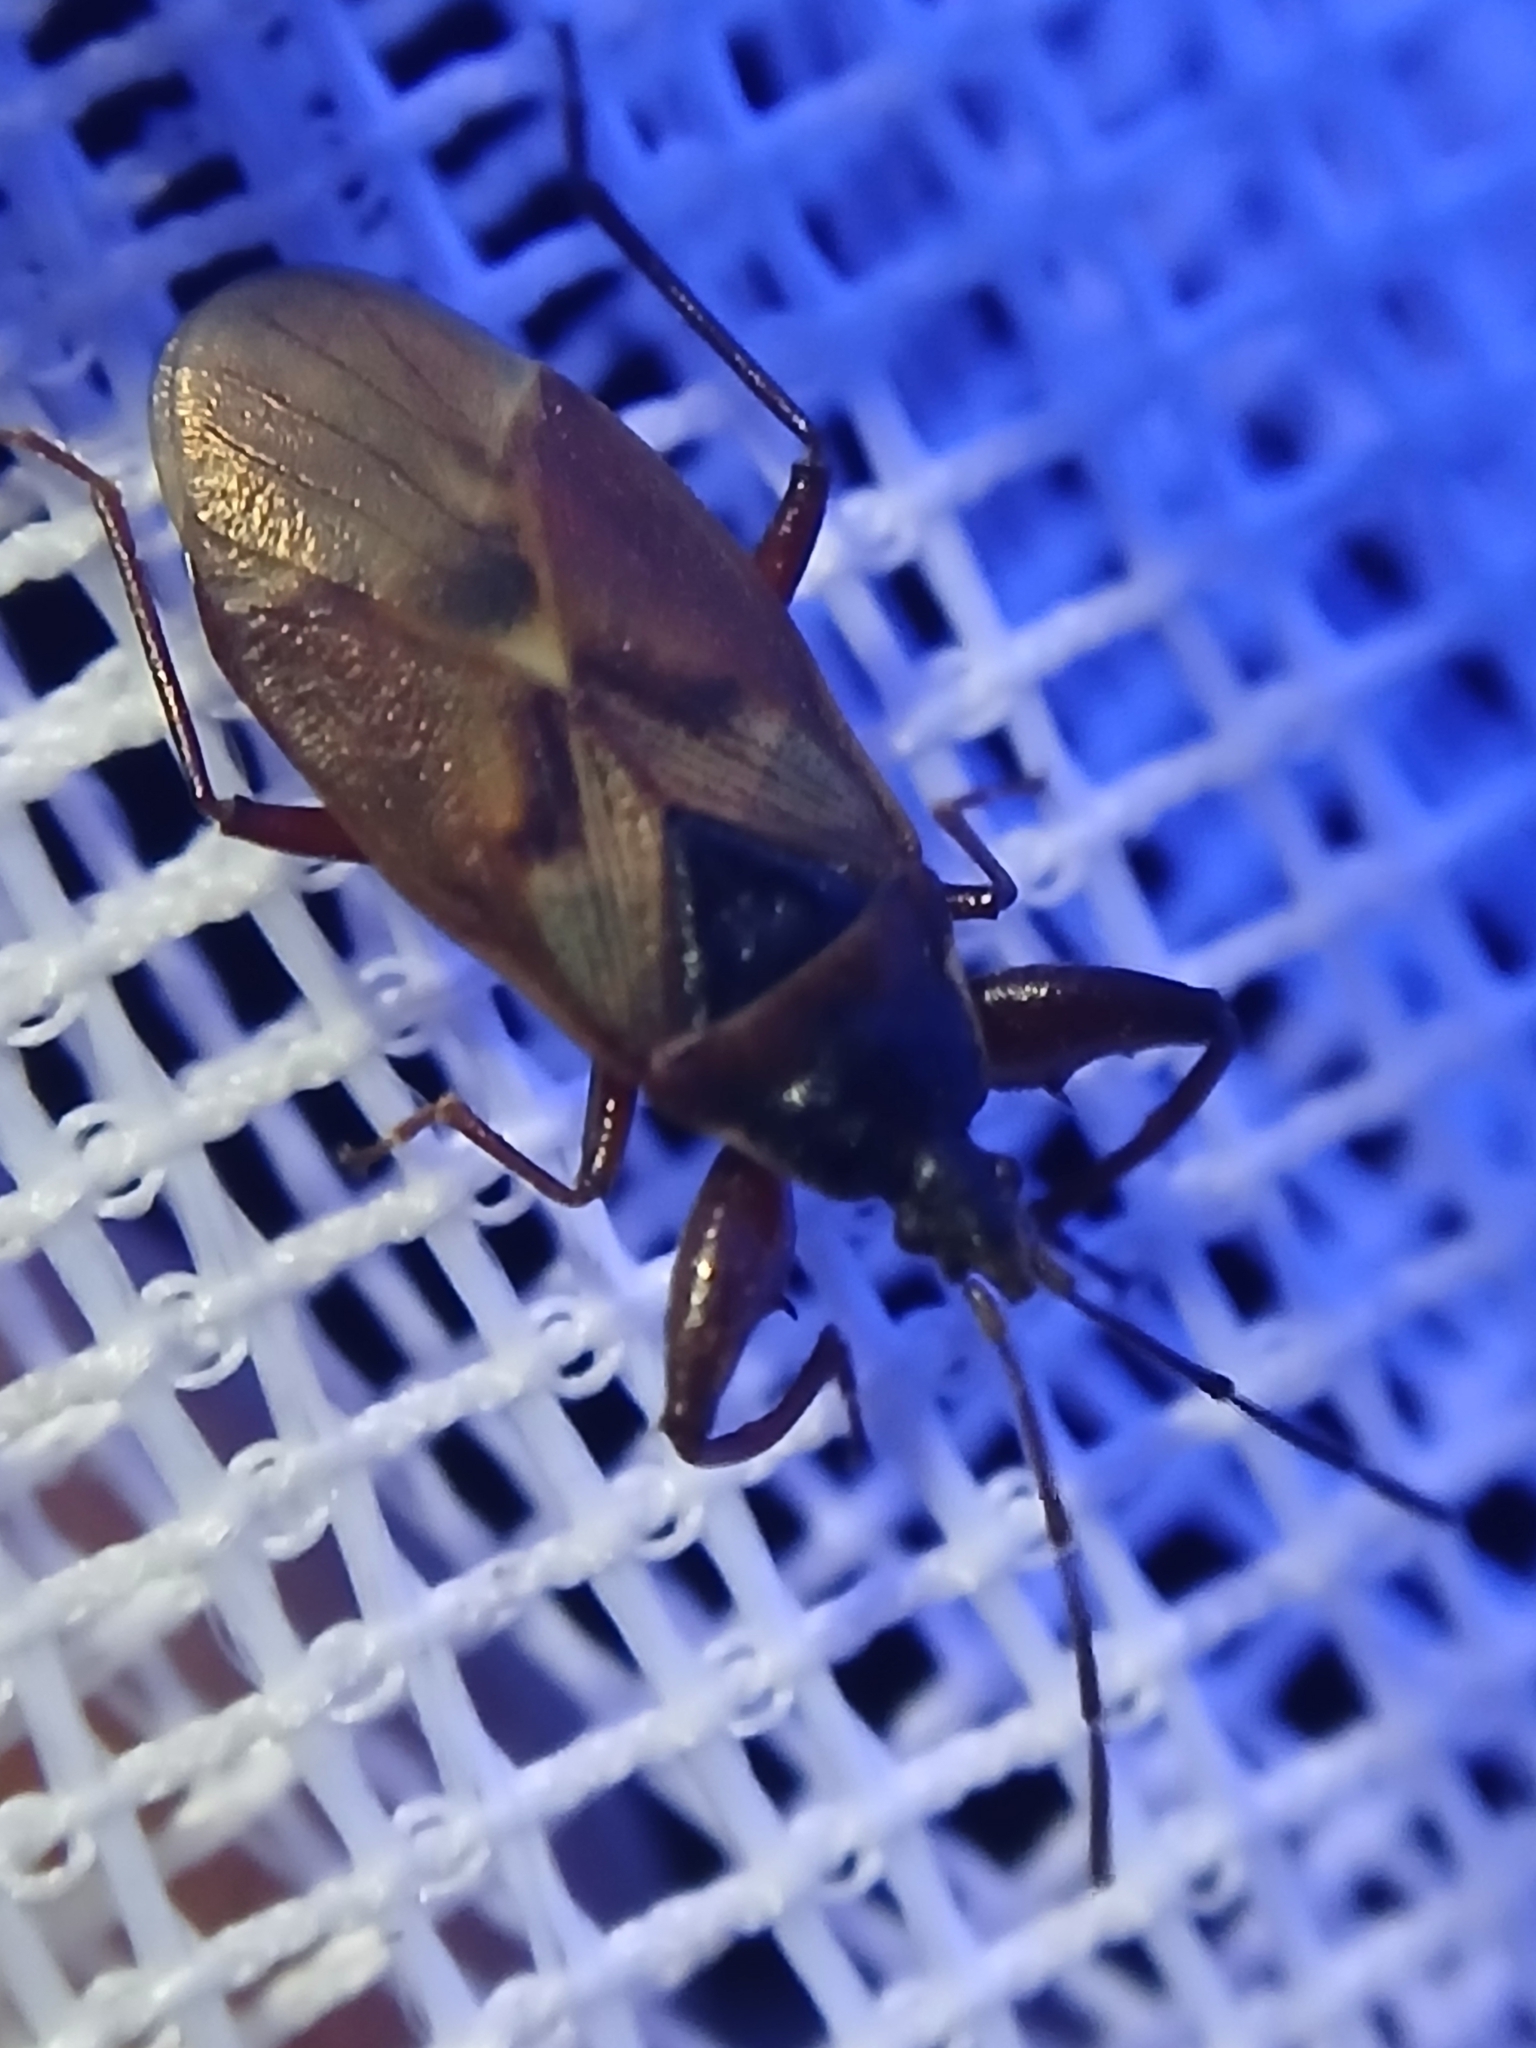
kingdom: Animalia
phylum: Arthropoda
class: Insecta
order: Hemiptera
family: Rhyparochromidae
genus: Gastrodes
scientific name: Gastrodes abietum
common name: Spruce cone bug
